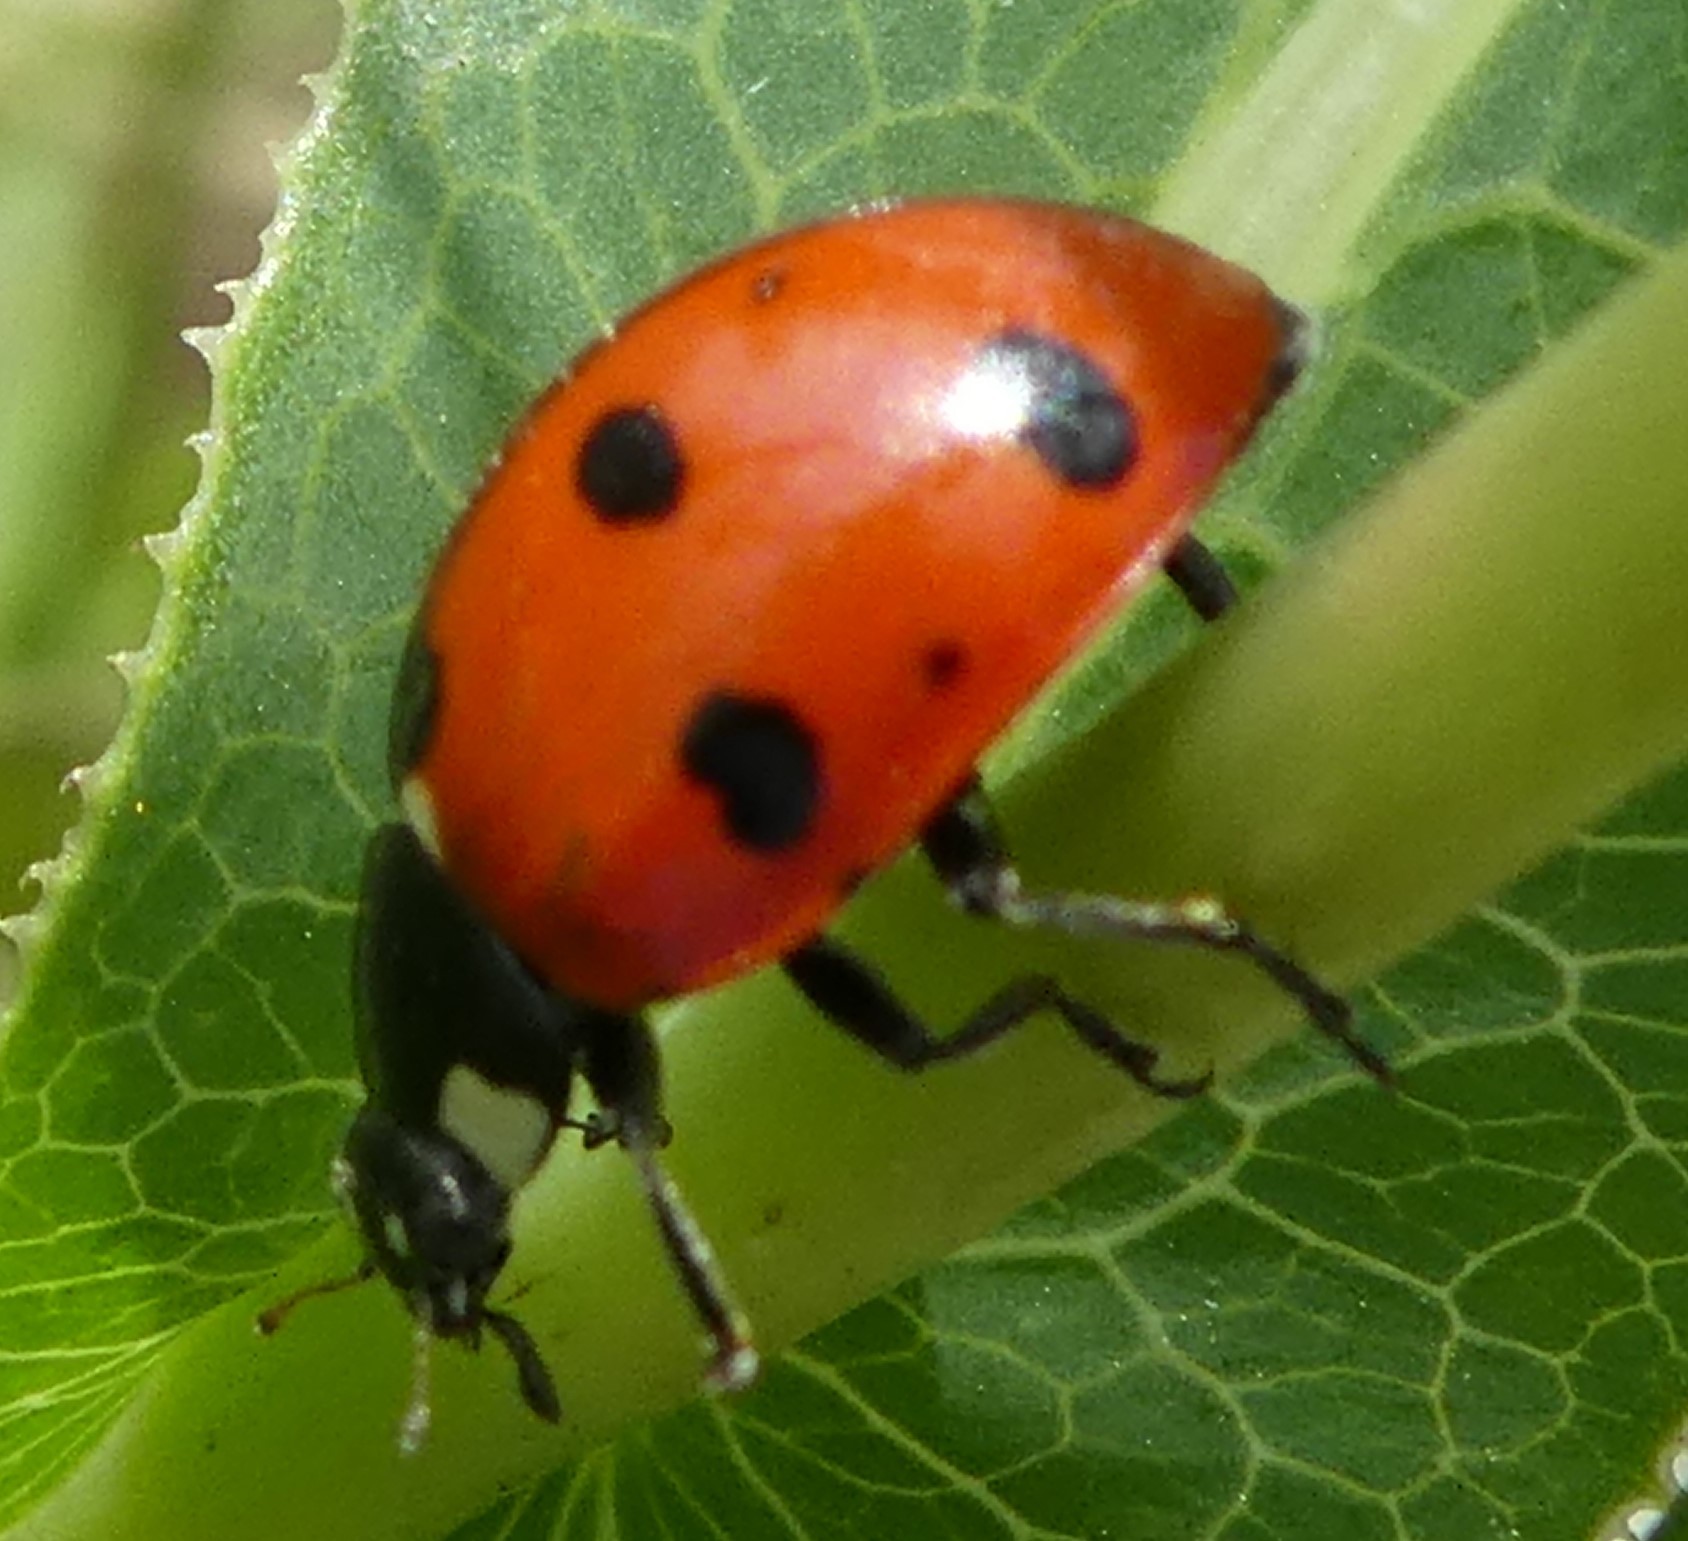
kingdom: Animalia
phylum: Arthropoda
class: Insecta
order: Coleoptera
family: Coccinellidae
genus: Coccinella
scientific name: Coccinella septempunctata
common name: Sevenspotted lady beetle
